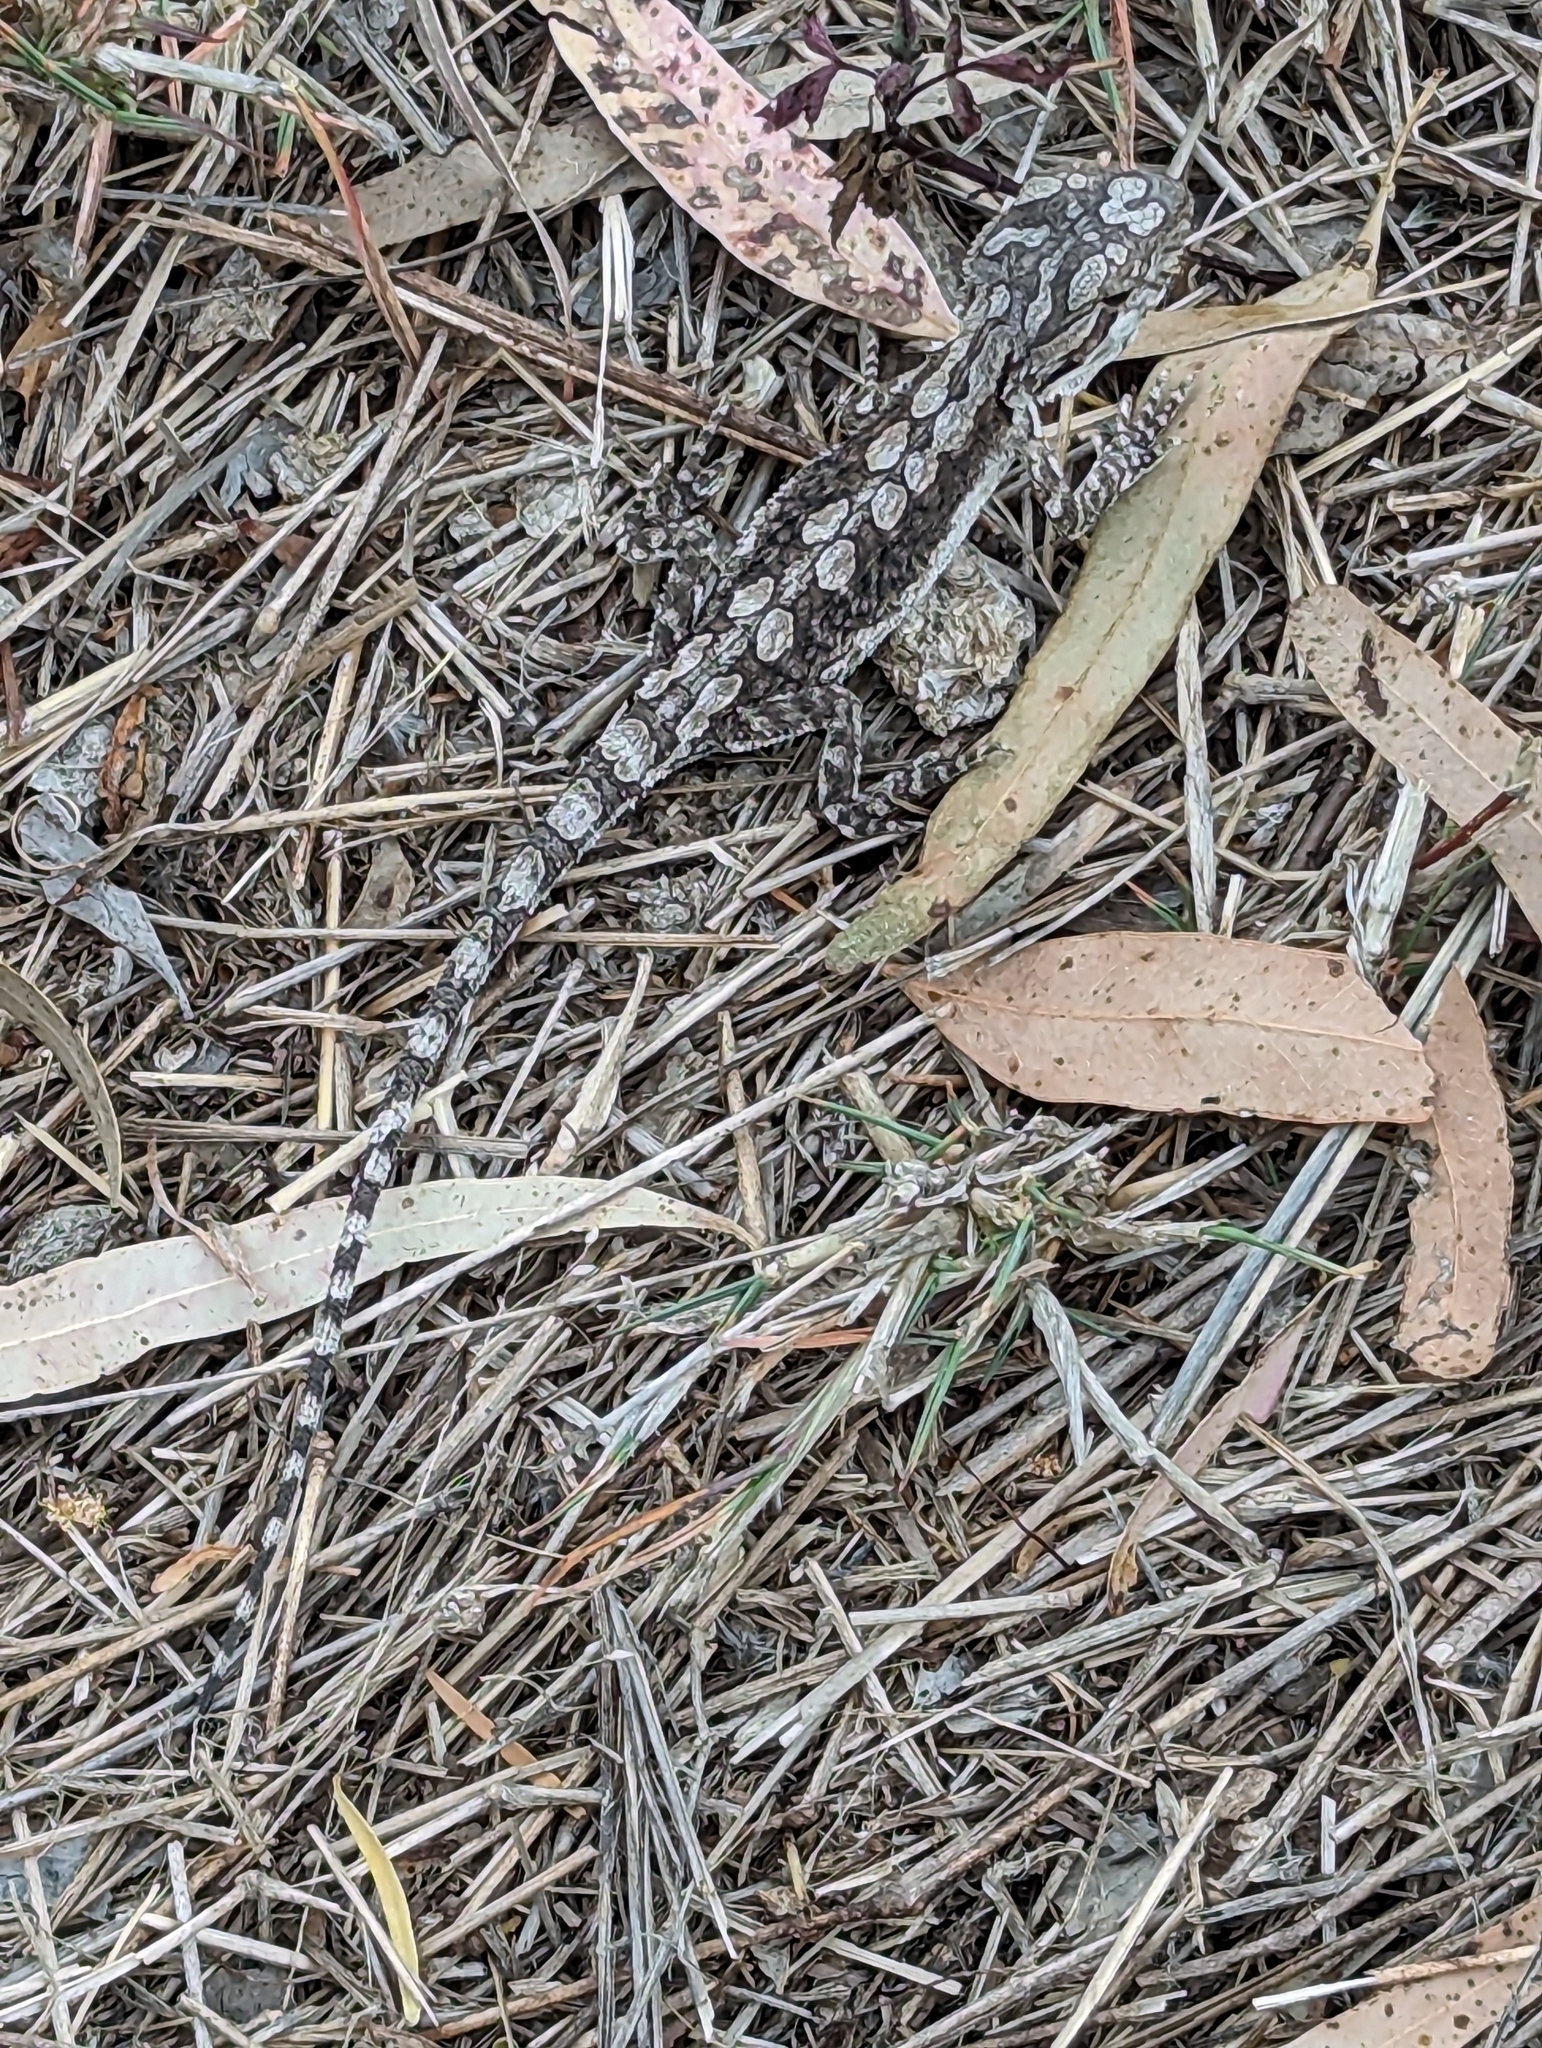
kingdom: Animalia
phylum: Chordata
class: Squamata
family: Agamidae
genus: Pogona
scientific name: Pogona barbata
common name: Bearded dragon
